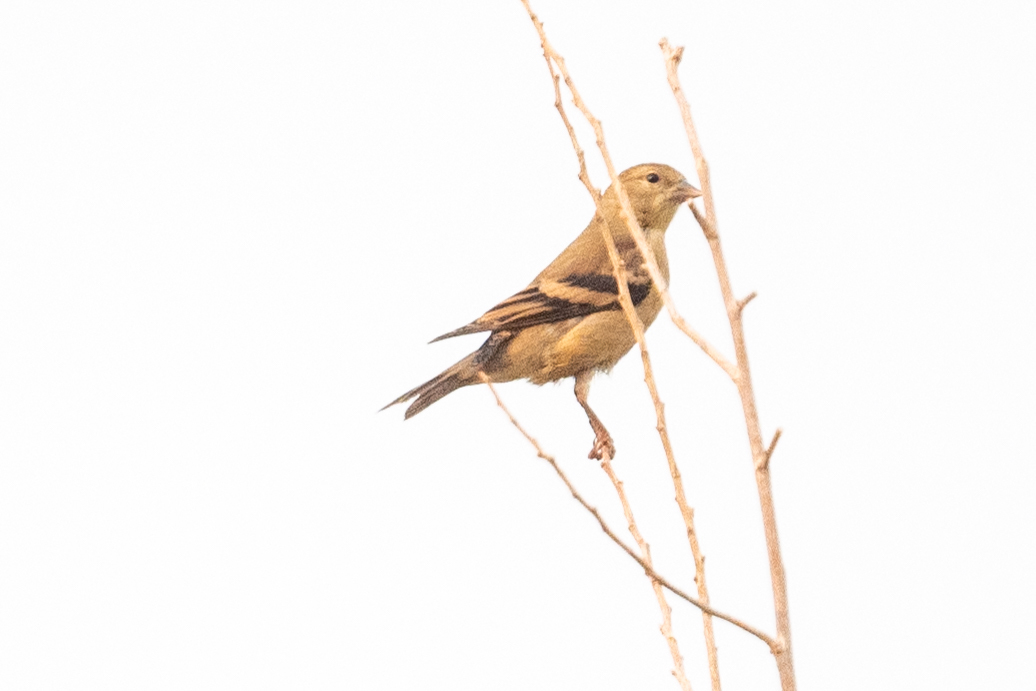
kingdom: Animalia
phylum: Chordata
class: Aves
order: Passeriformes
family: Fringillidae
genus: Spinus
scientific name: Spinus tristis
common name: American goldfinch
